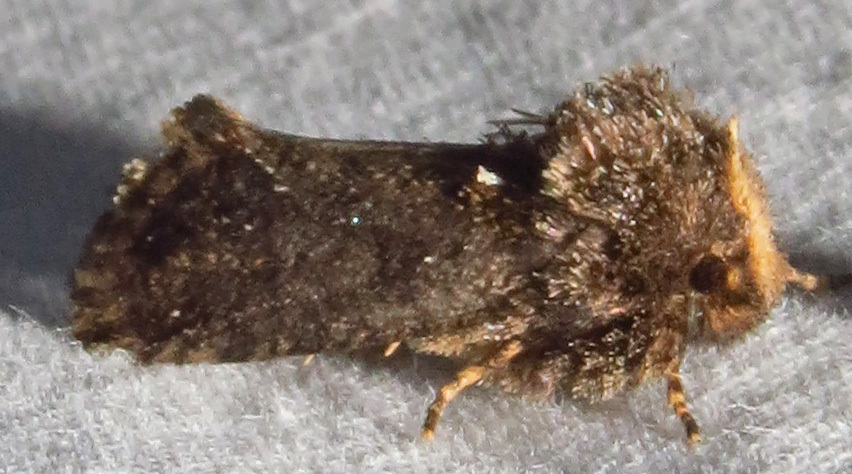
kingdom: Animalia
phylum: Arthropoda
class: Insecta
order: Lepidoptera
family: Tineidae
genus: Acrolophus
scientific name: Acrolophus arcanella
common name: Arcane grass tubeworm moth
